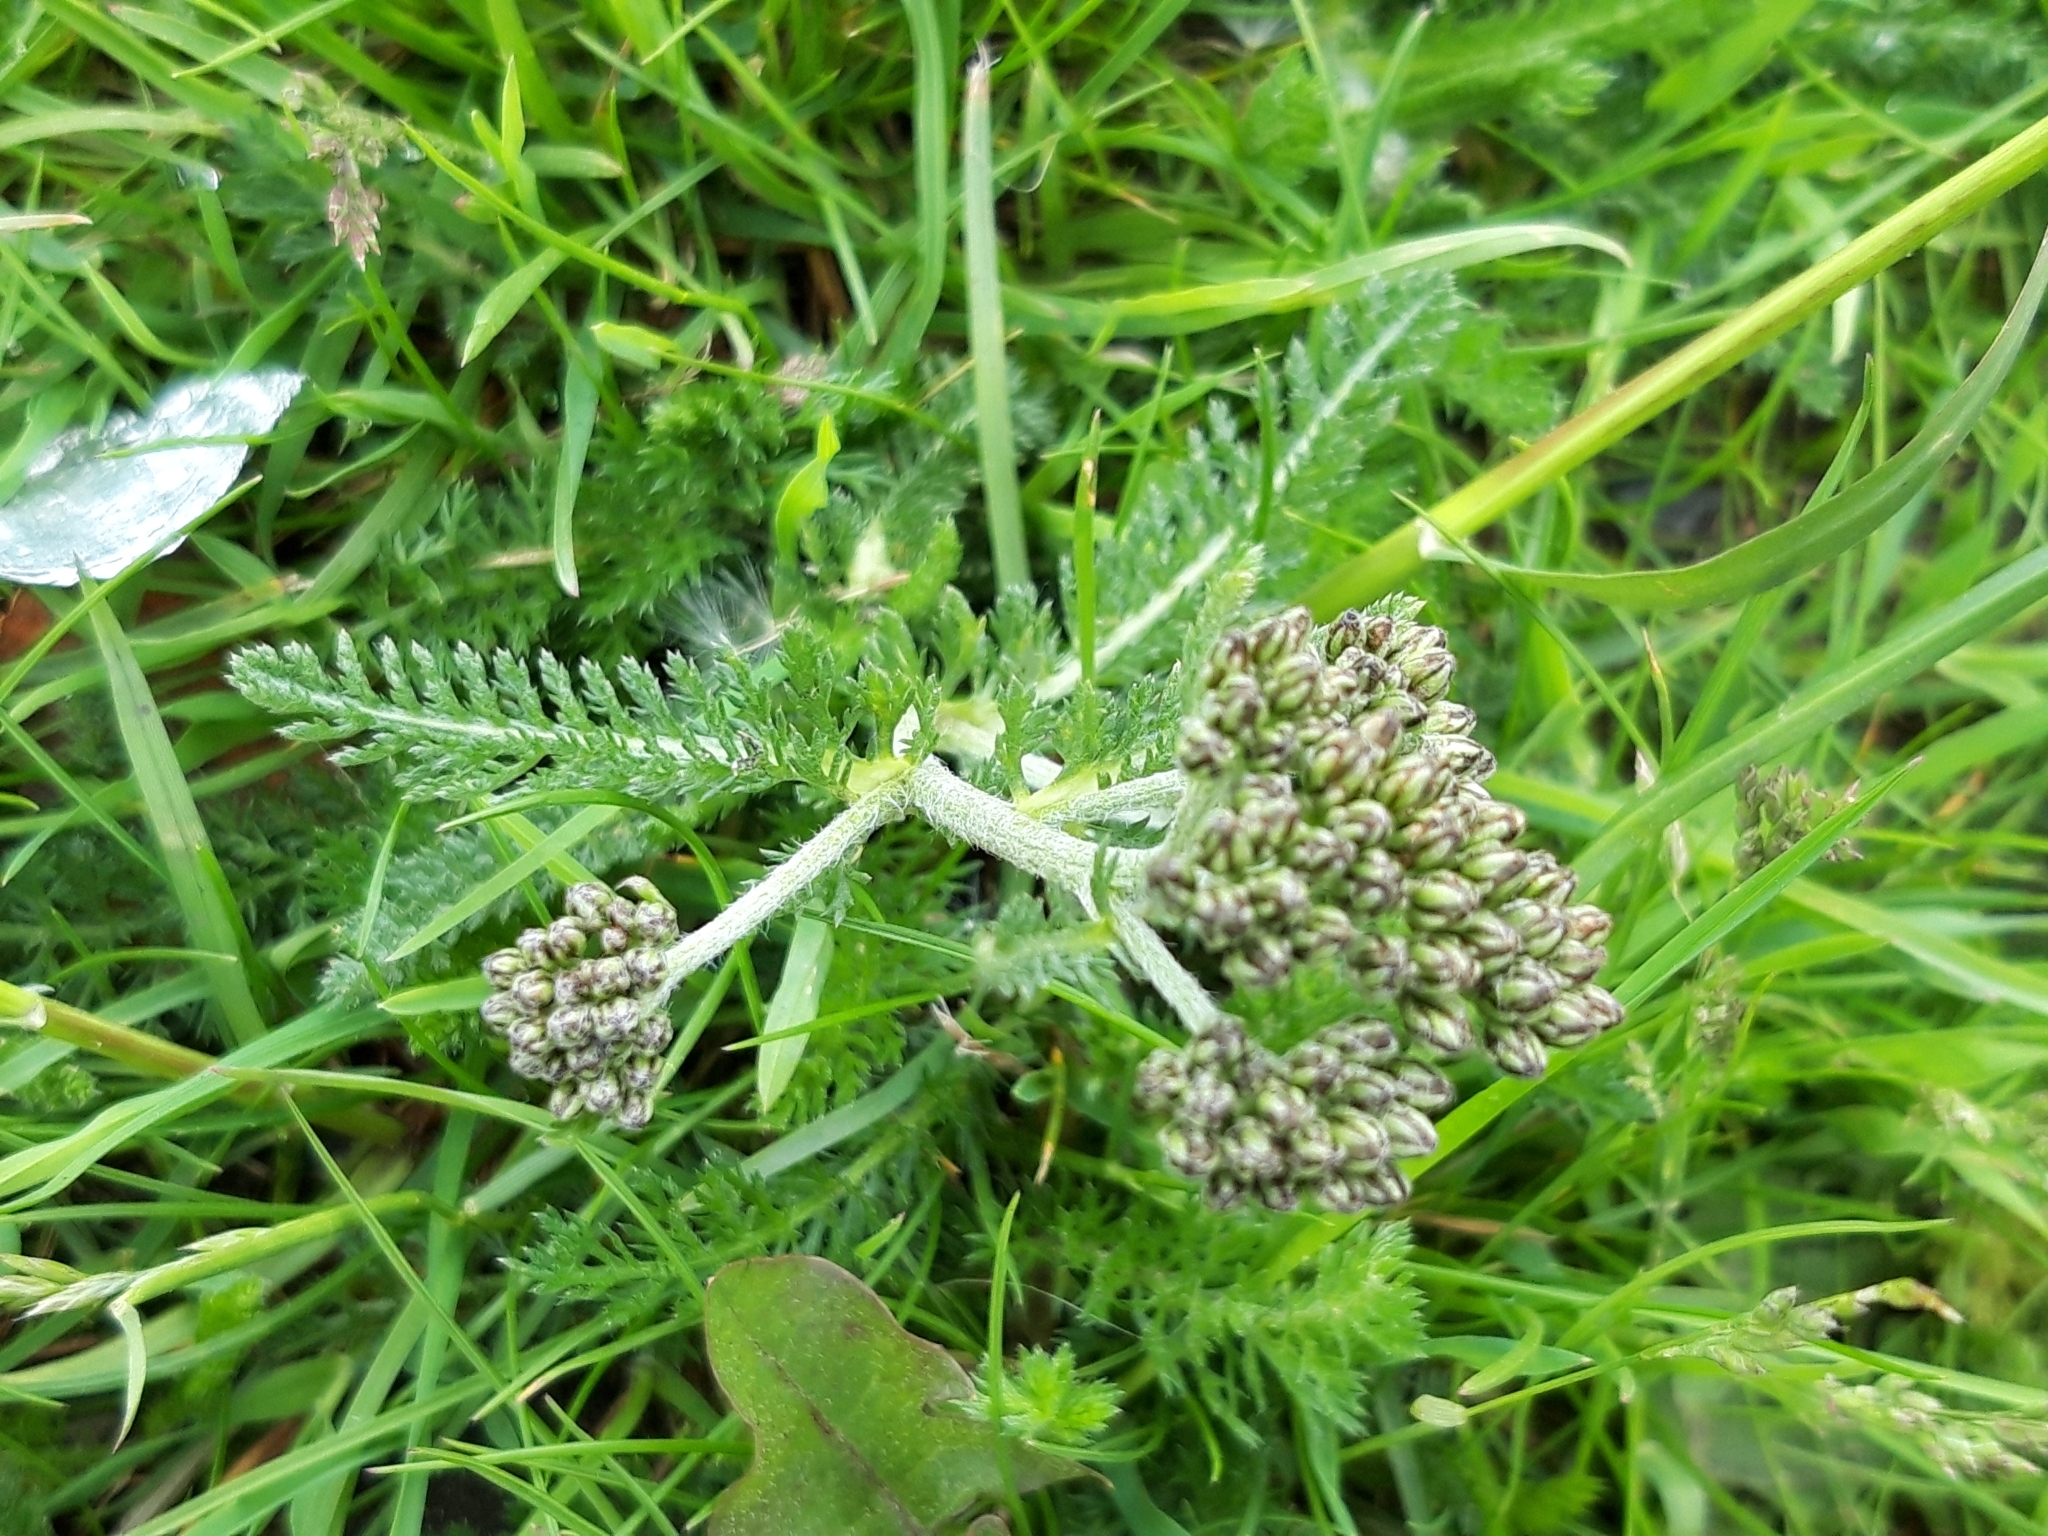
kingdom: Plantae
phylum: Tracheophyta
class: Magnoliopsida
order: Asterales
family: Asteraceae
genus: Achillea
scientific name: Achillea millefolium
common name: Yarrow
